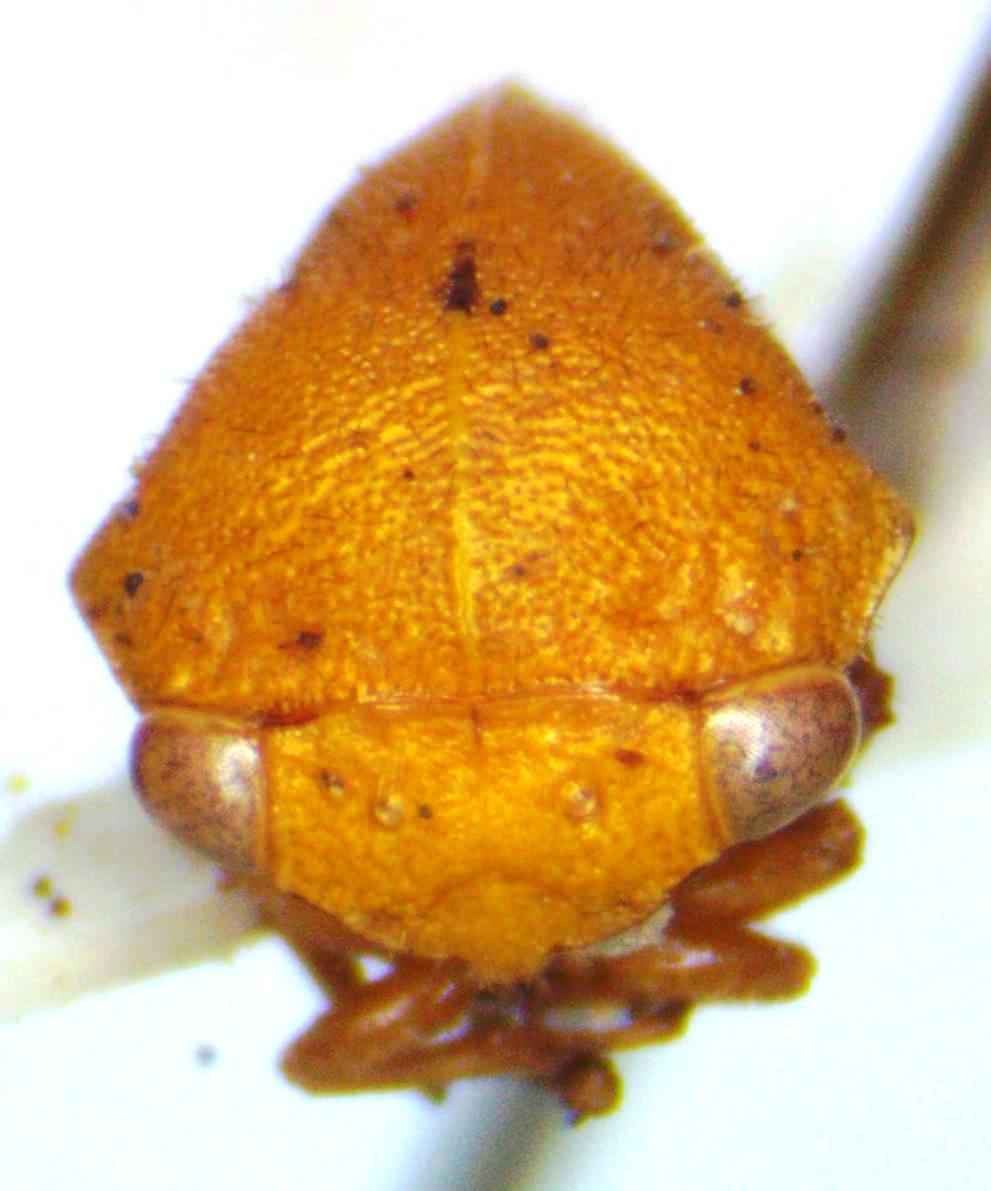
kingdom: Animalia
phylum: Arthropoda
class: Insecta
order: Hemiptera
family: Membracidae
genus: Vanduzea
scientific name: Vanduzea segmentata
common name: Membracid bug
